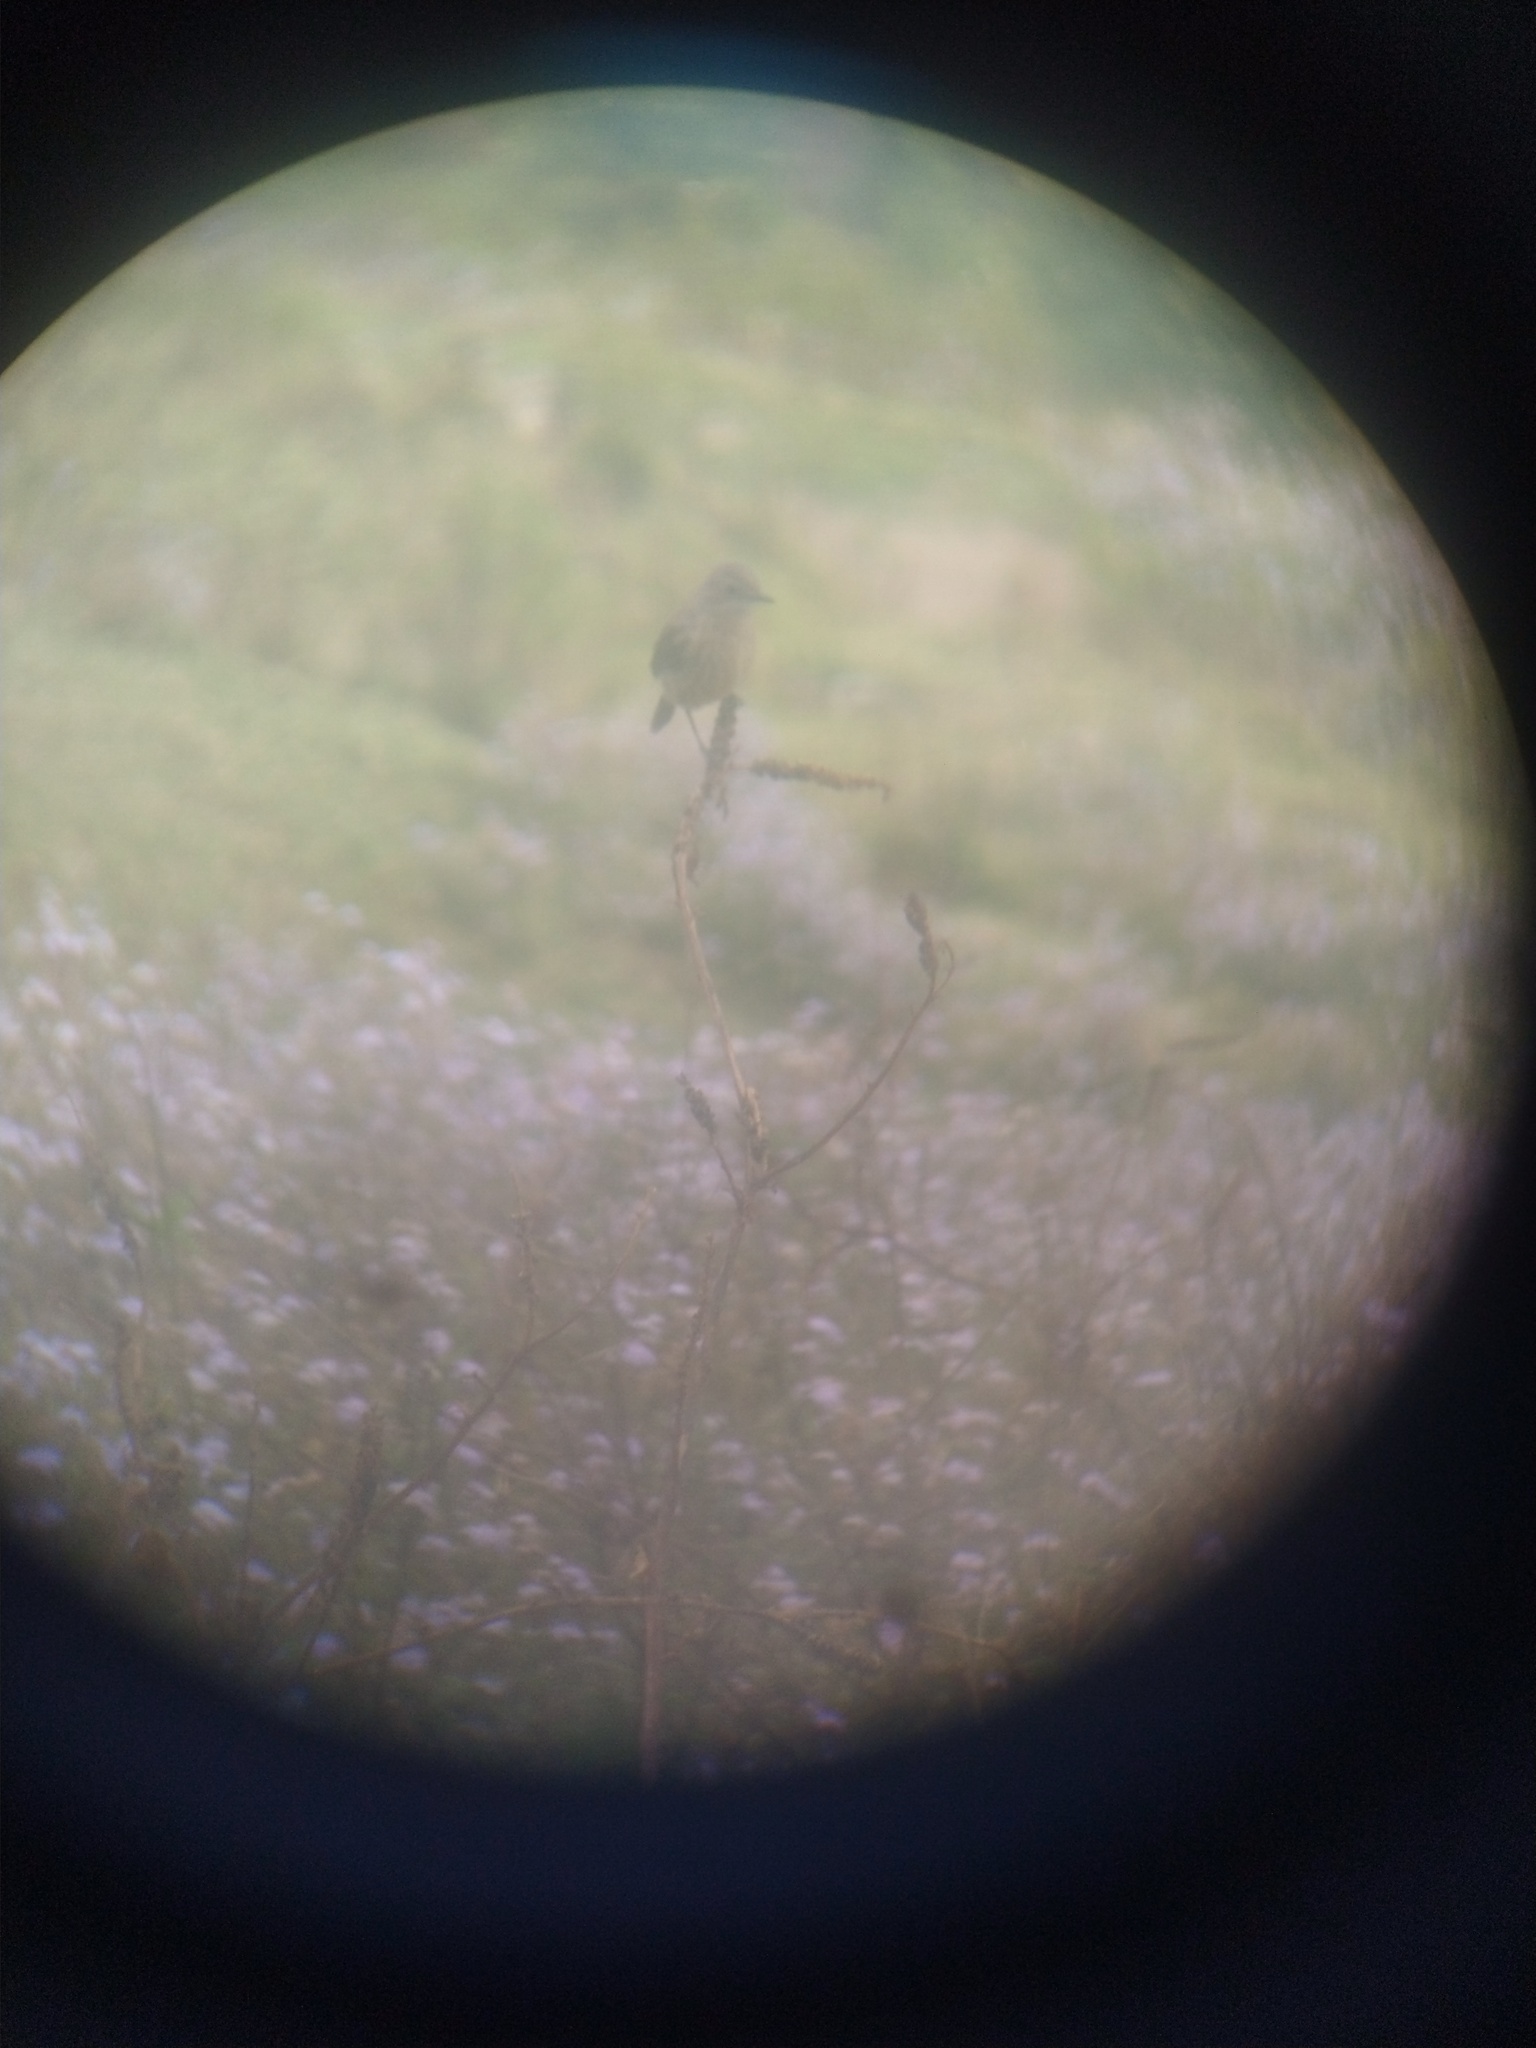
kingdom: Animalia
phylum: Chordata
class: Aves
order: Passeriformes
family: Muscicapidae
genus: Saxicola
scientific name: Saxicola caprata
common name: Pied bush chat
